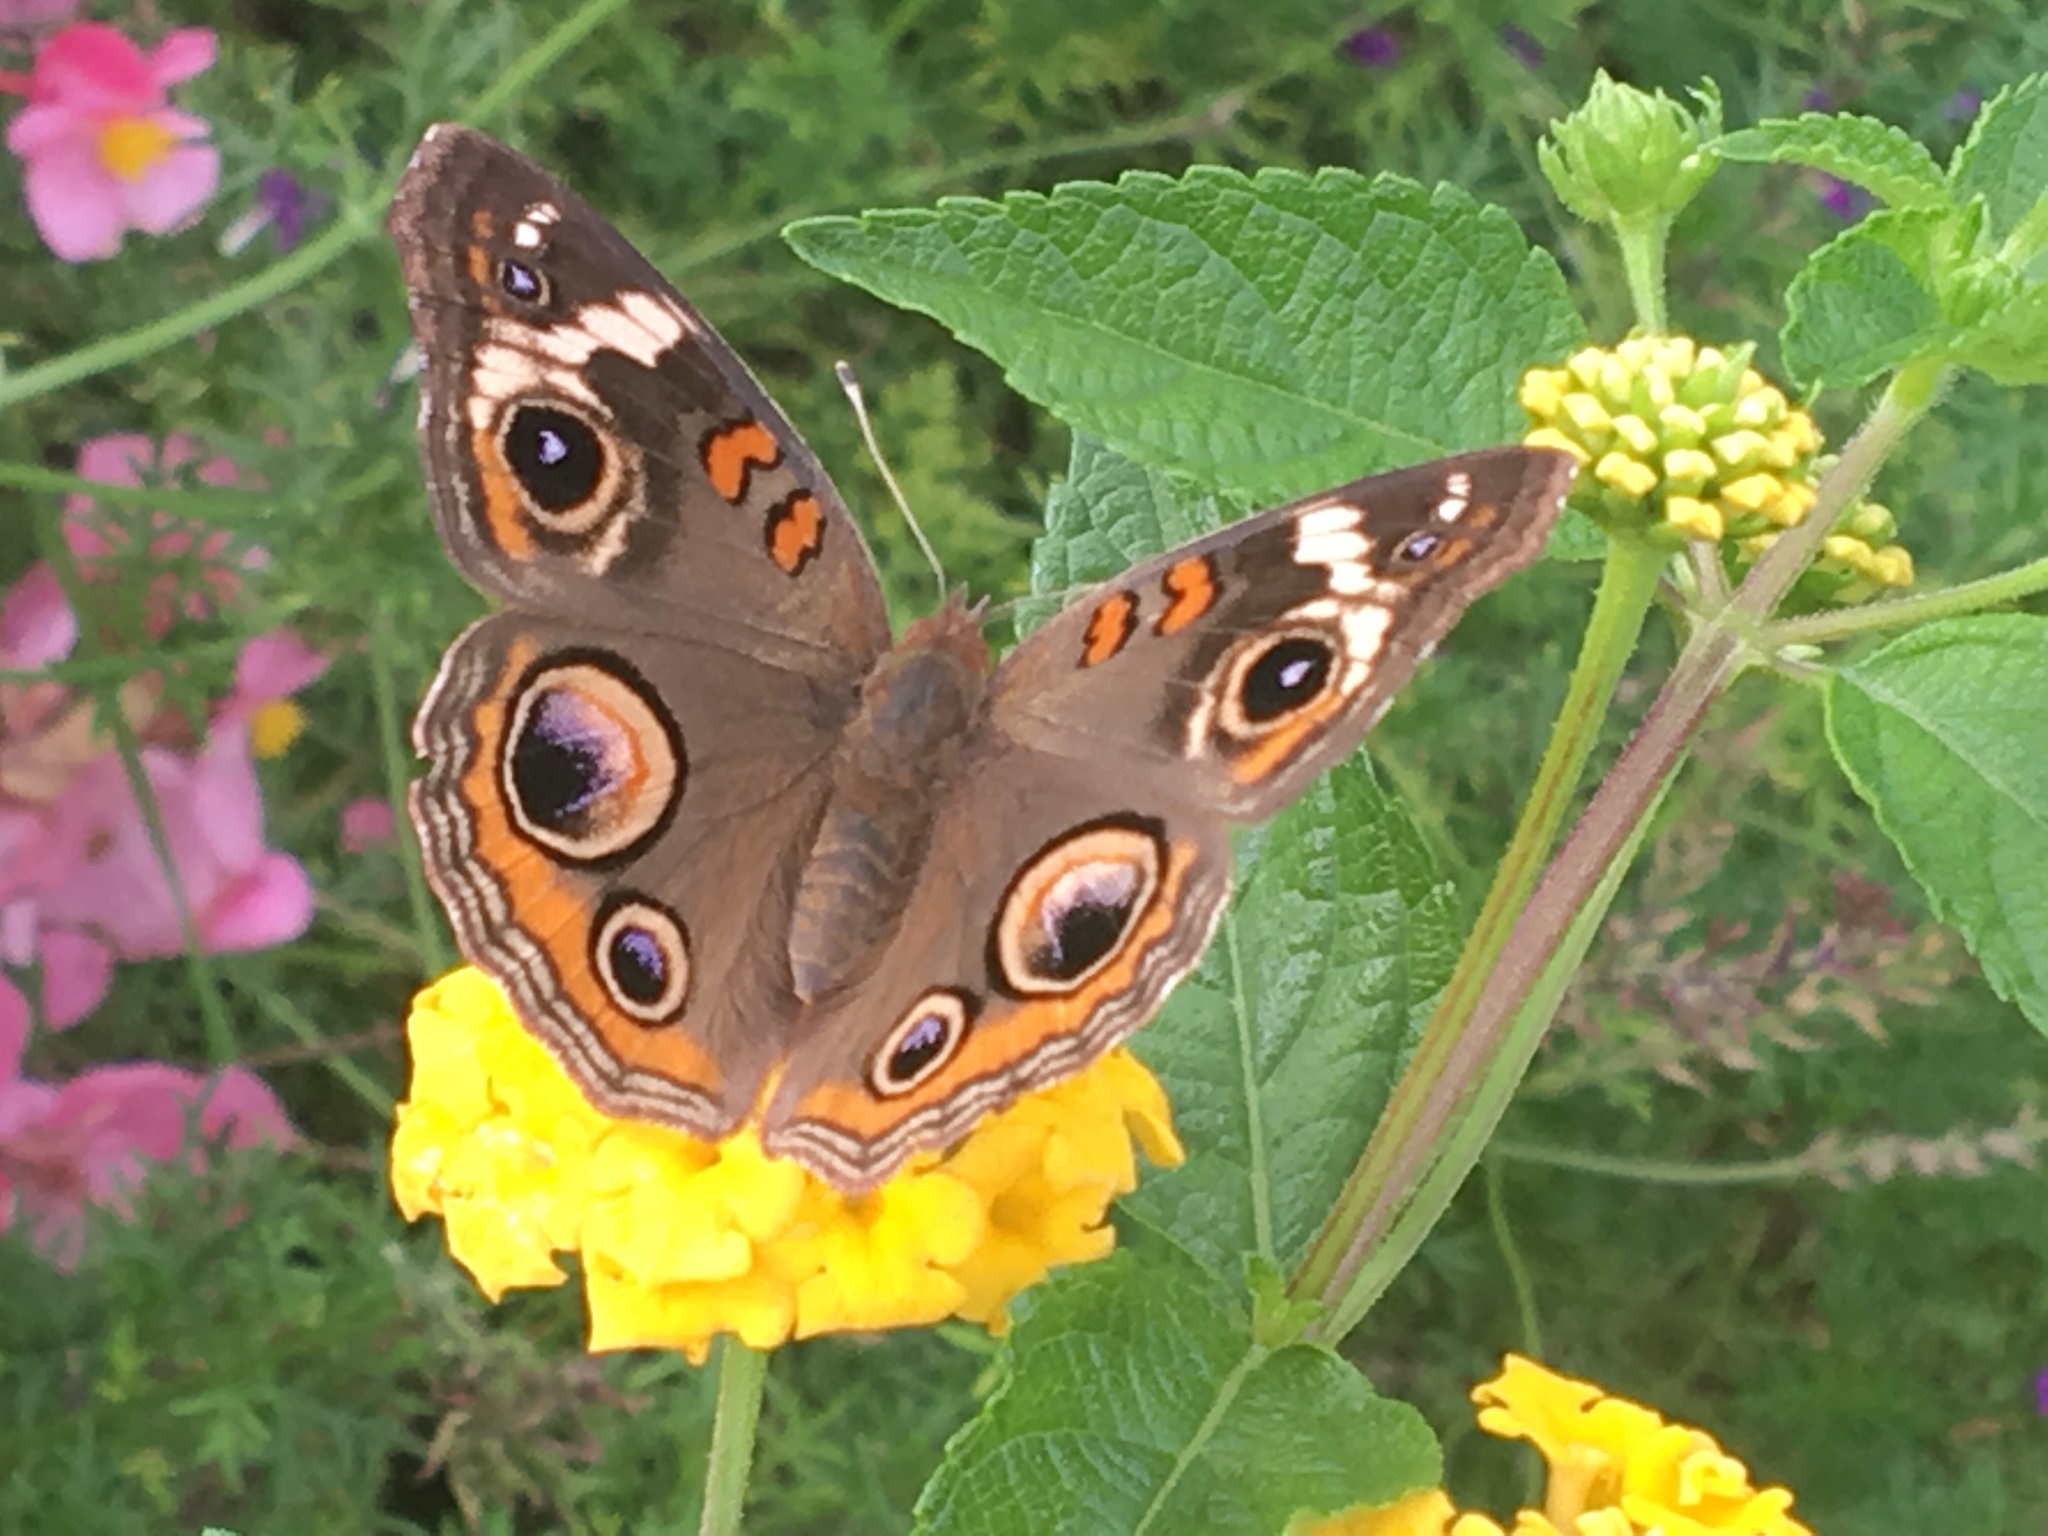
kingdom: Animalia
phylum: Arthropoda
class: Insecta
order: Lepidoptera
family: Nymphalidae
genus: Junonia
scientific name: Junonia coenia
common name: Common buckeye
